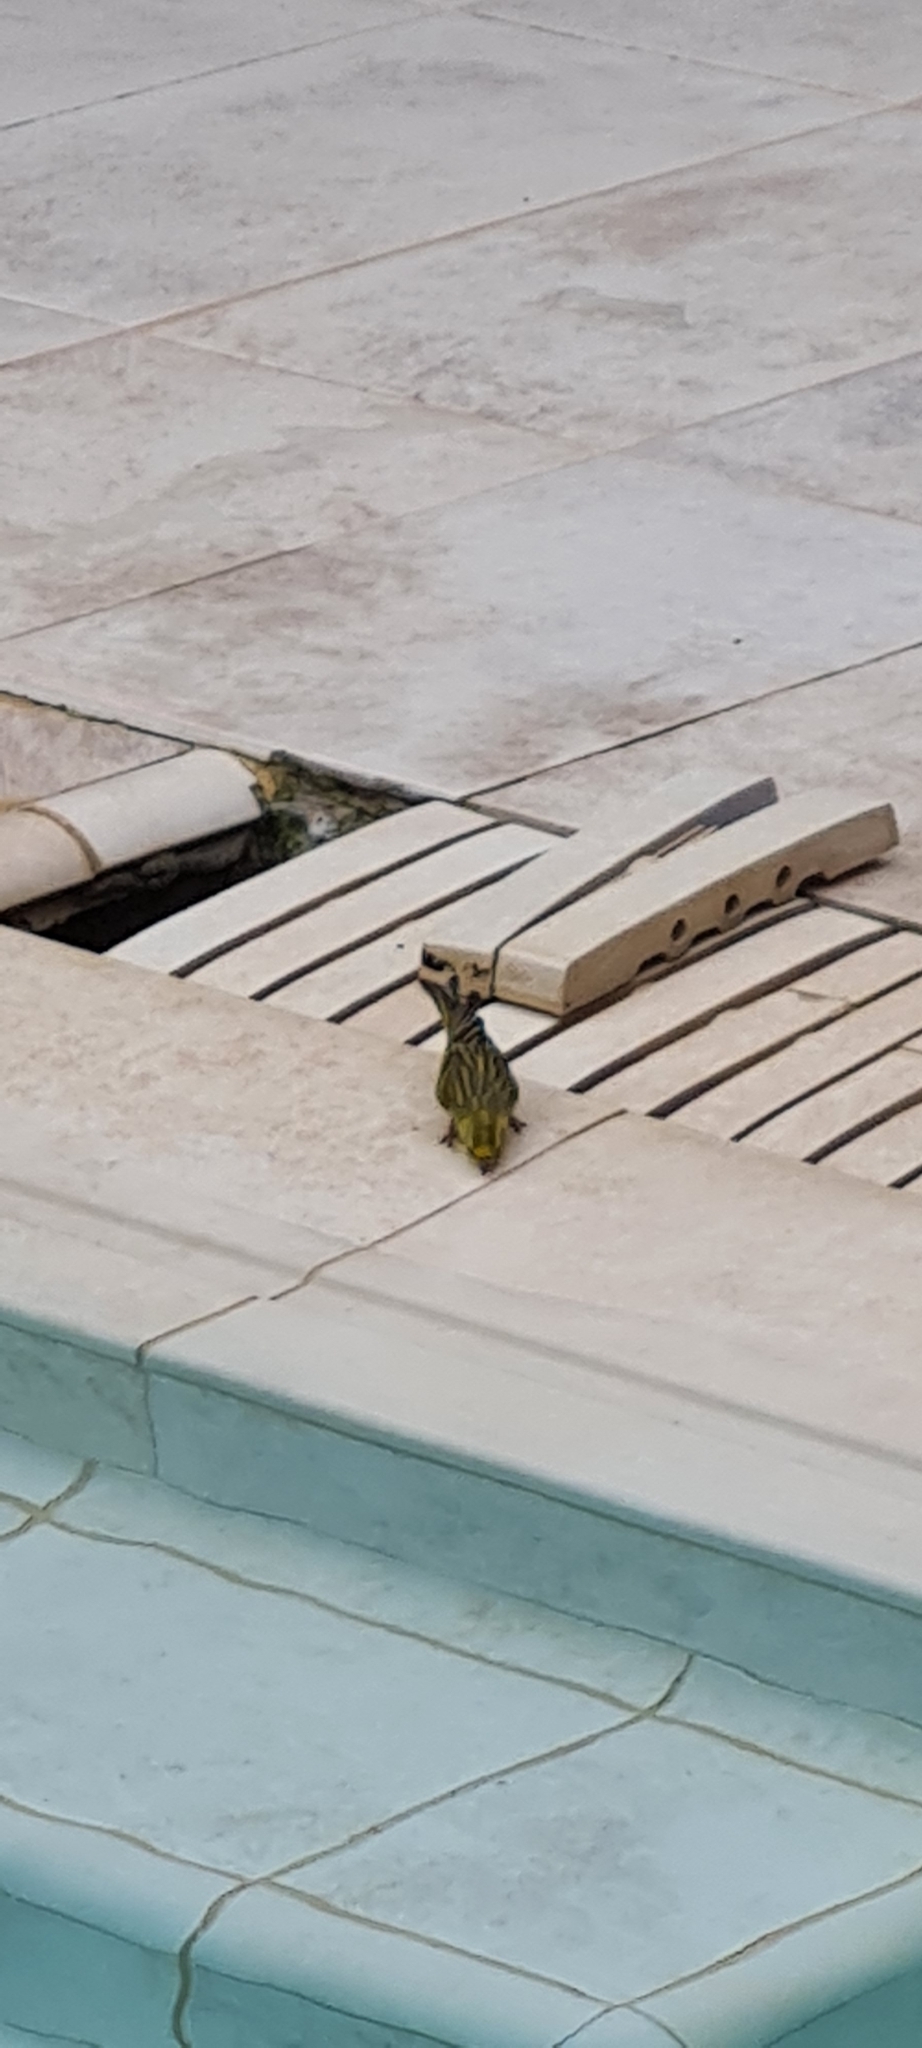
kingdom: Animalia
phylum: Chordata
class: Aves
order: Passeriformes
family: Fringillidae
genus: Serinus
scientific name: Serinus serinus
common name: European serin
